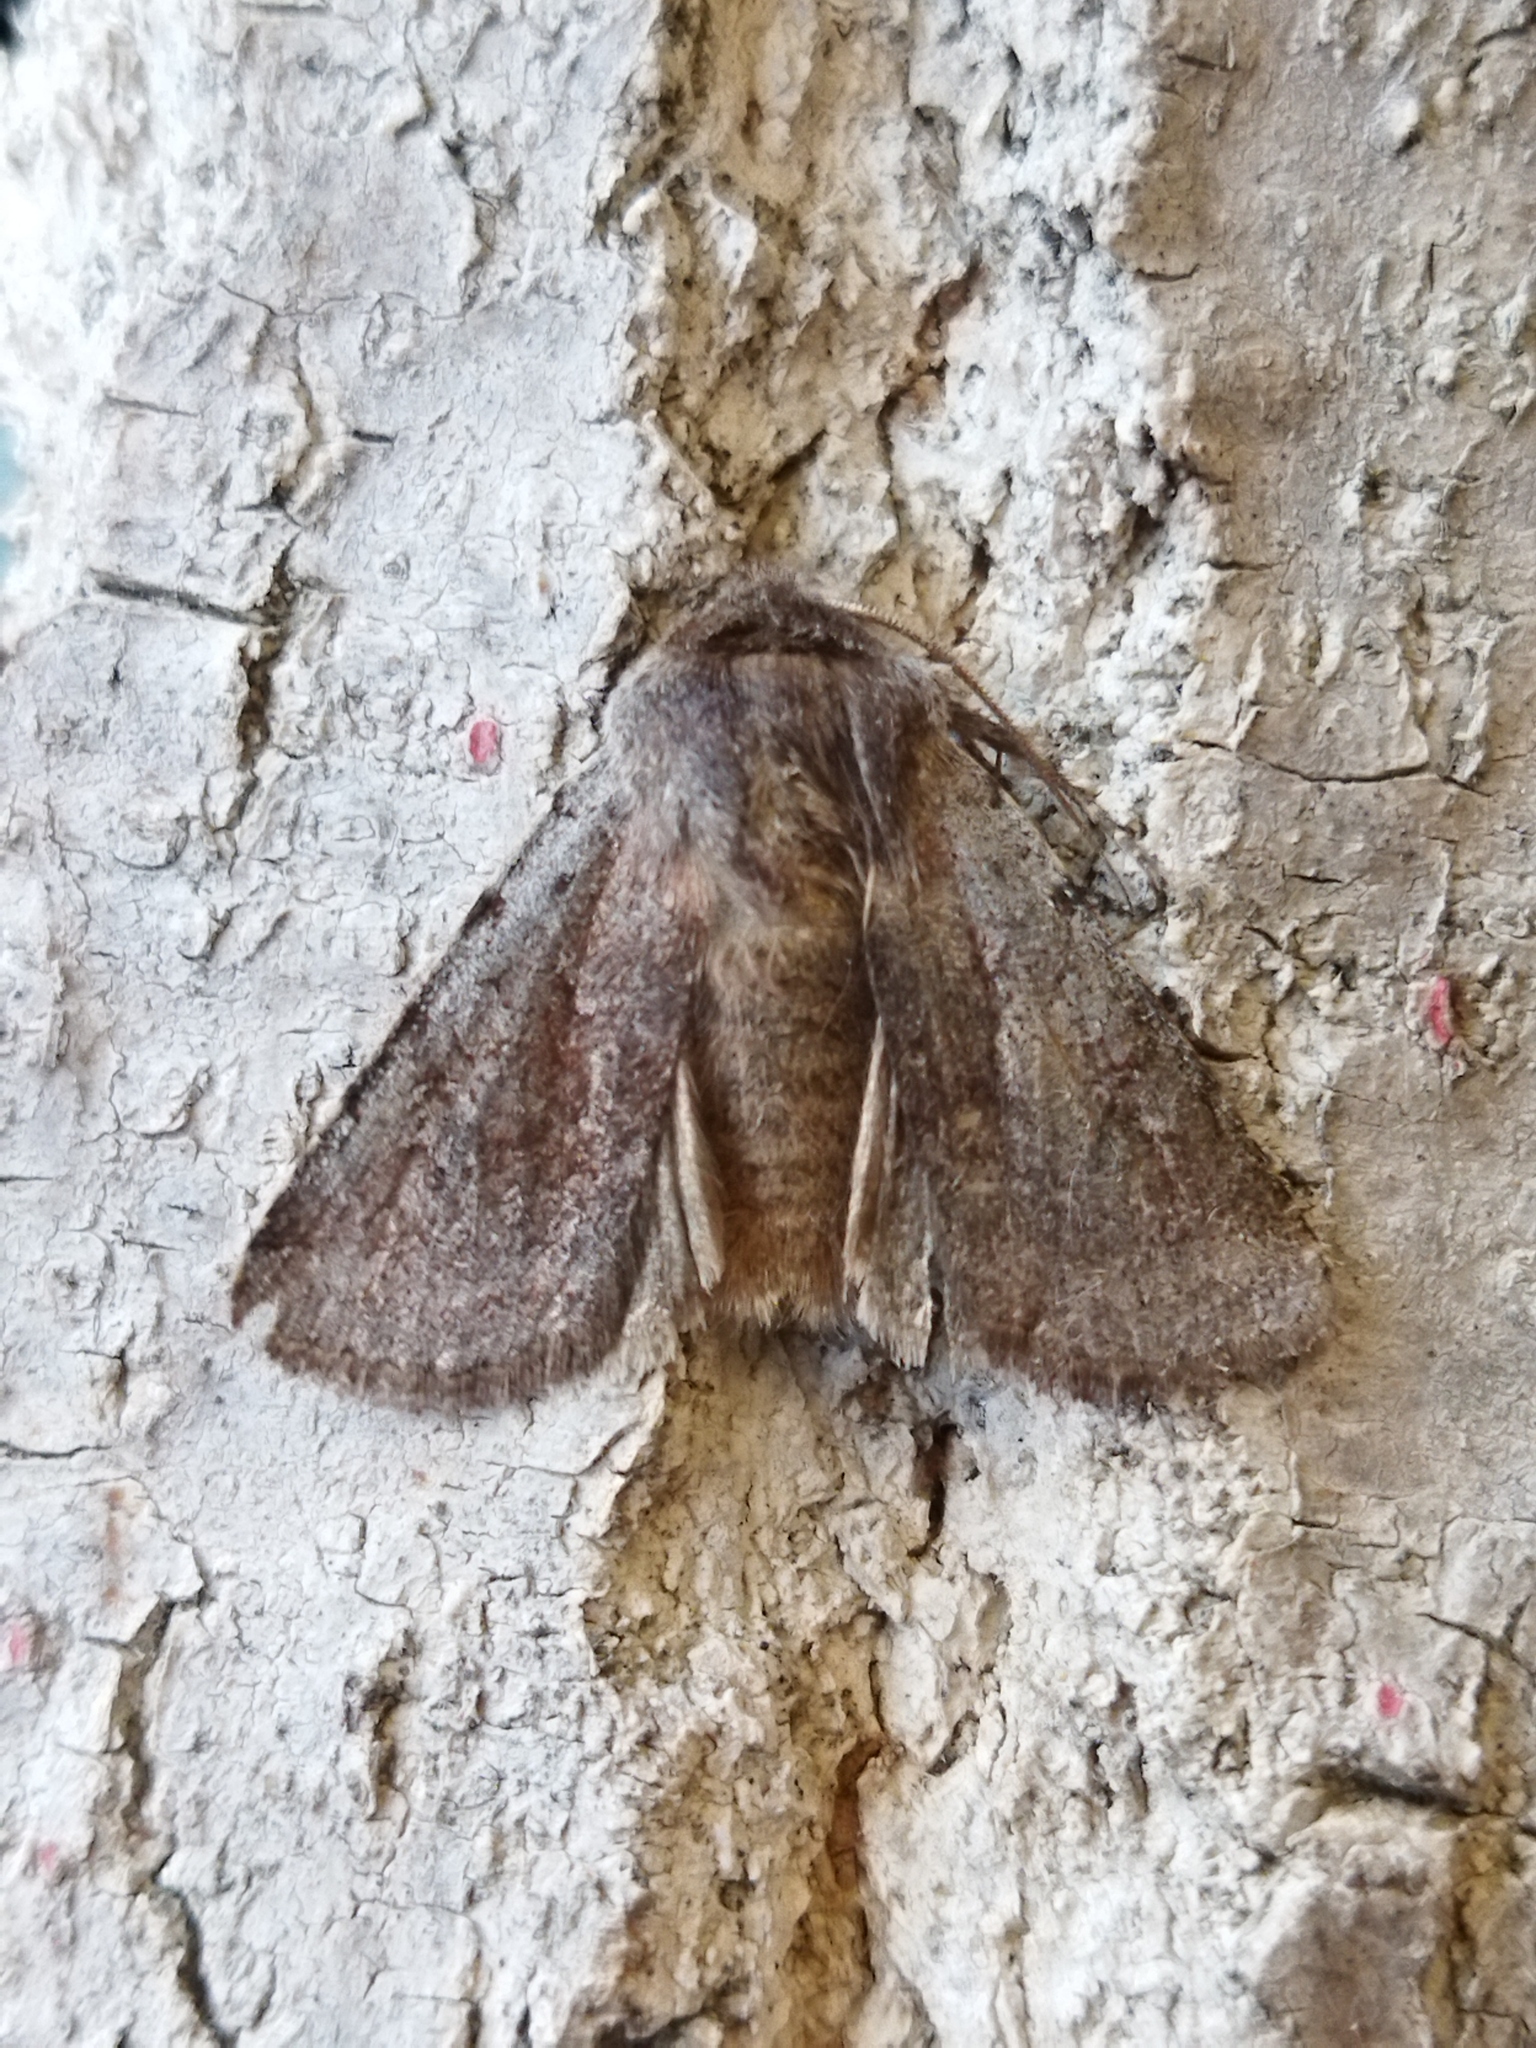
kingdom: Animalia
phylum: Arthropoda
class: Insecta
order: Lepidoptera
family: Noctuidae
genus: Cerastis
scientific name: Cerastis rubricosa
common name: Red chestnut
